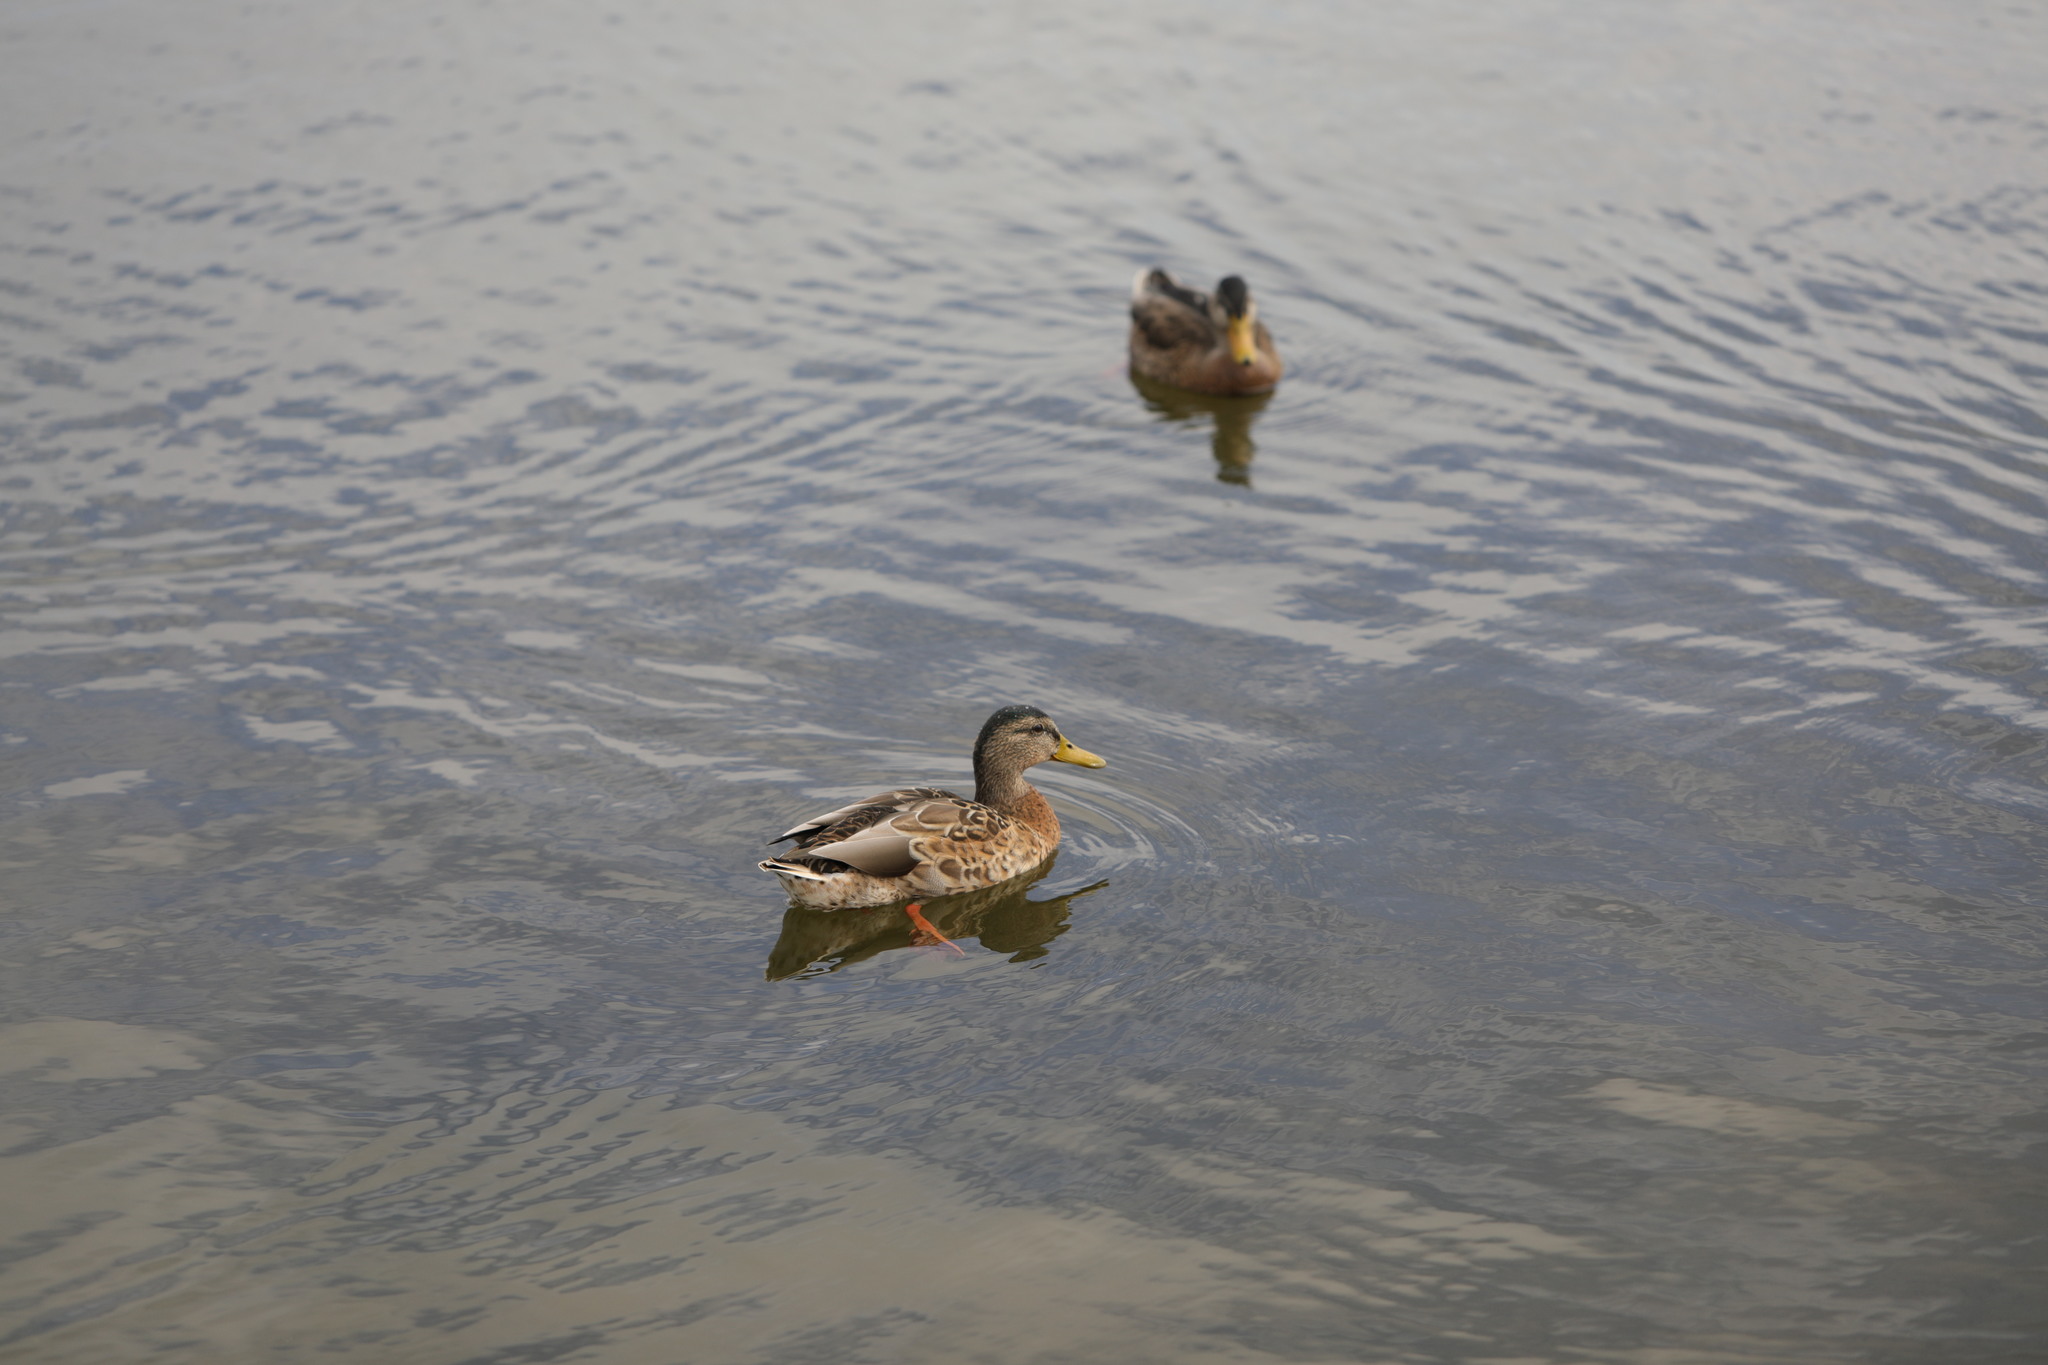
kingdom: Animalia
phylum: Chordata
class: Aves
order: Anseriformes
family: Anatidae
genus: Anas
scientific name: Anas platyrhynchos
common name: Mallard
